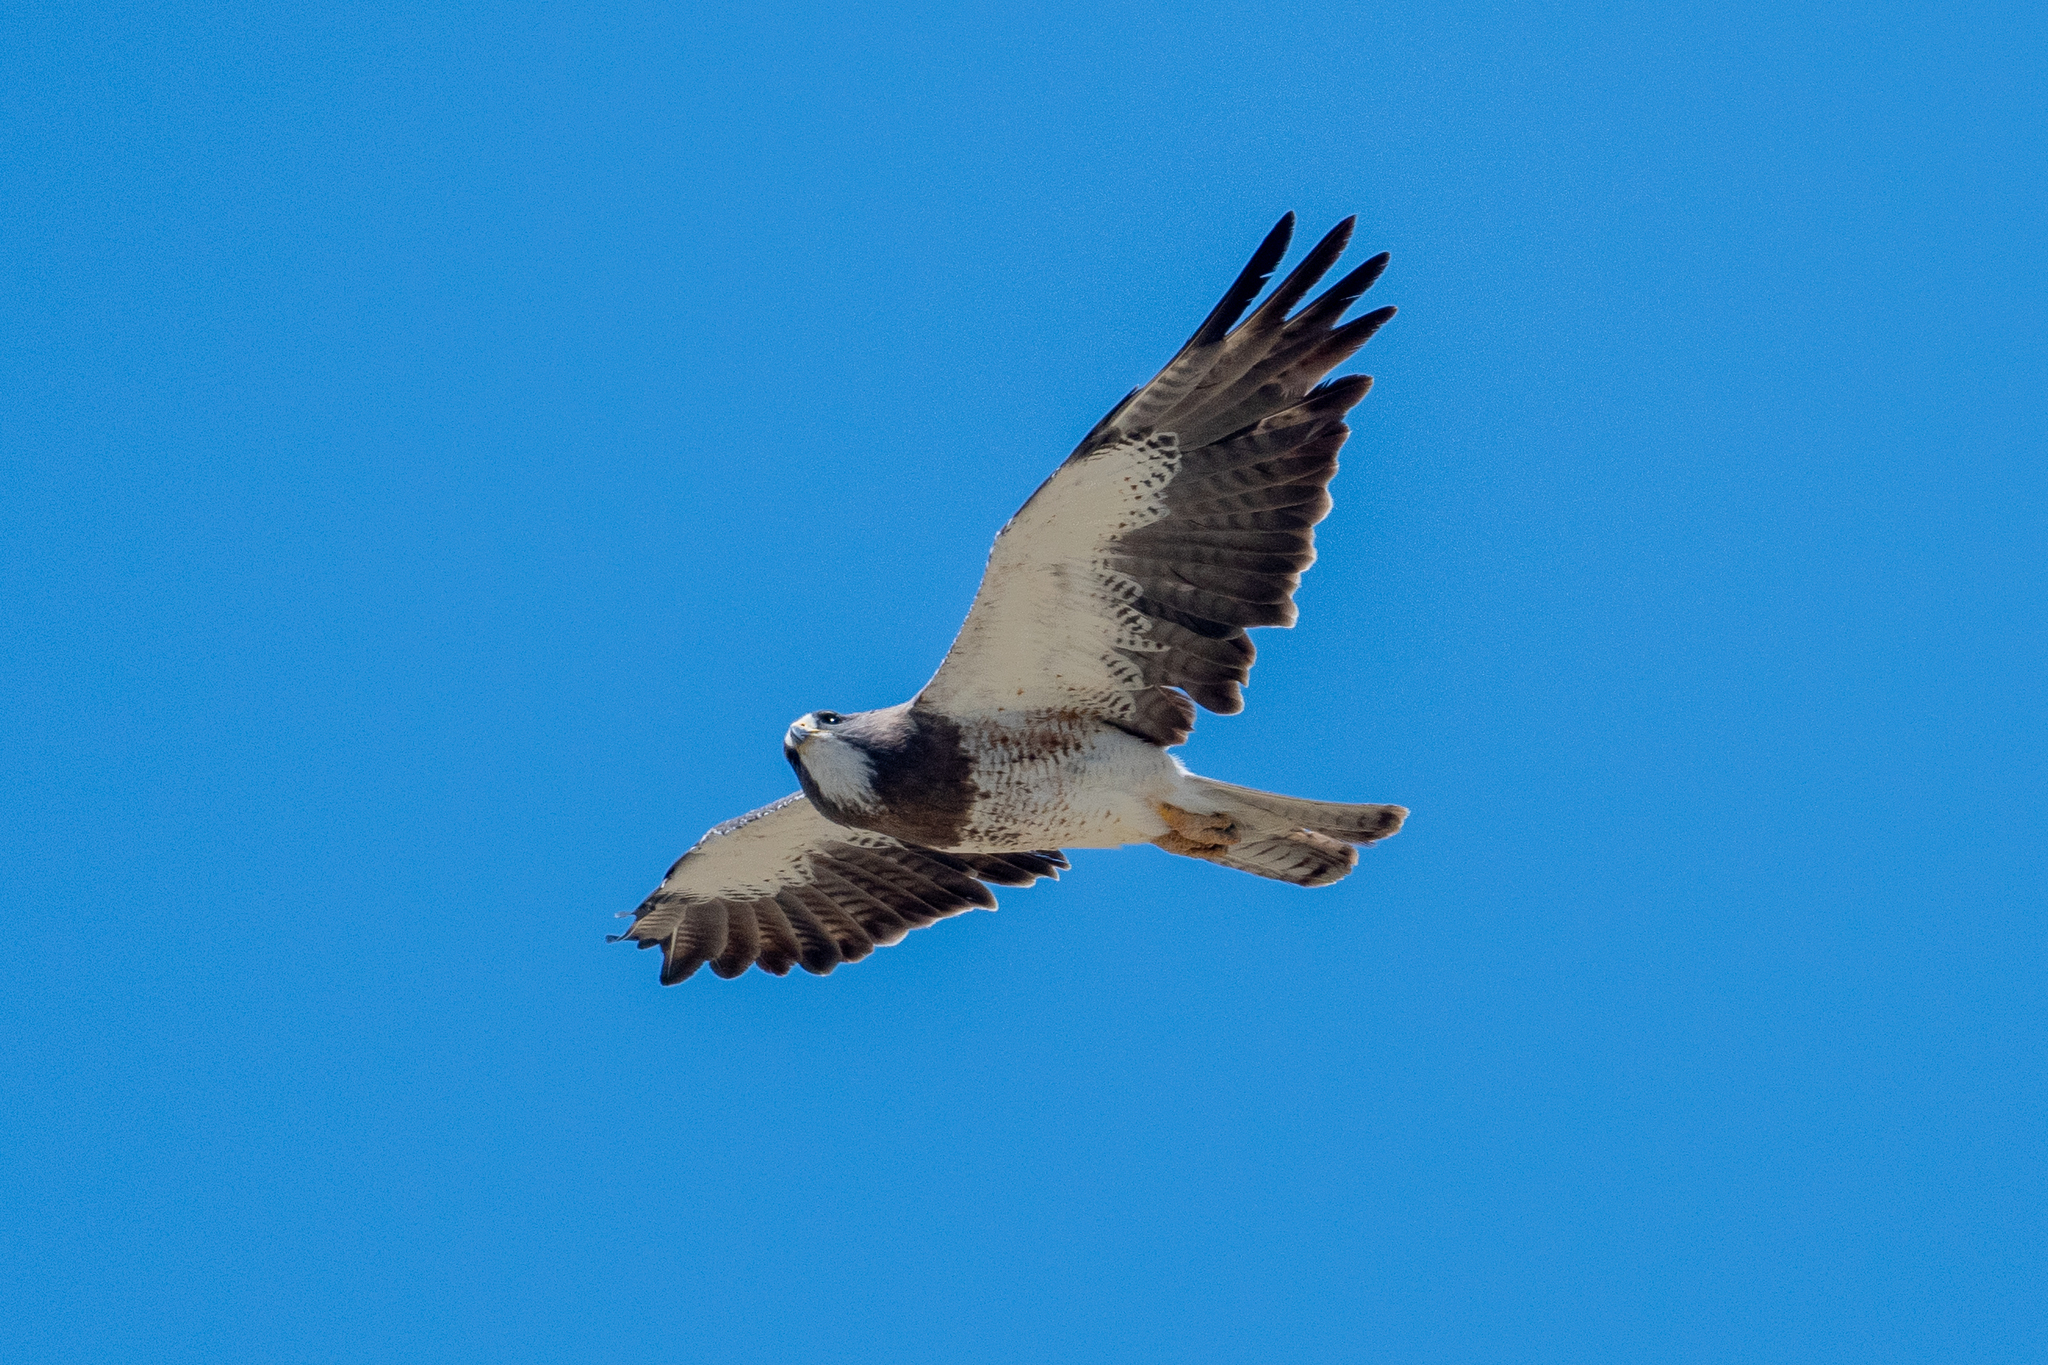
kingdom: Animalia
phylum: Chordata
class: Aves
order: Accipitriformes
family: Accipitridae
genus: Buteo
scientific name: Buteo swainsoni
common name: Swainson's hawk
